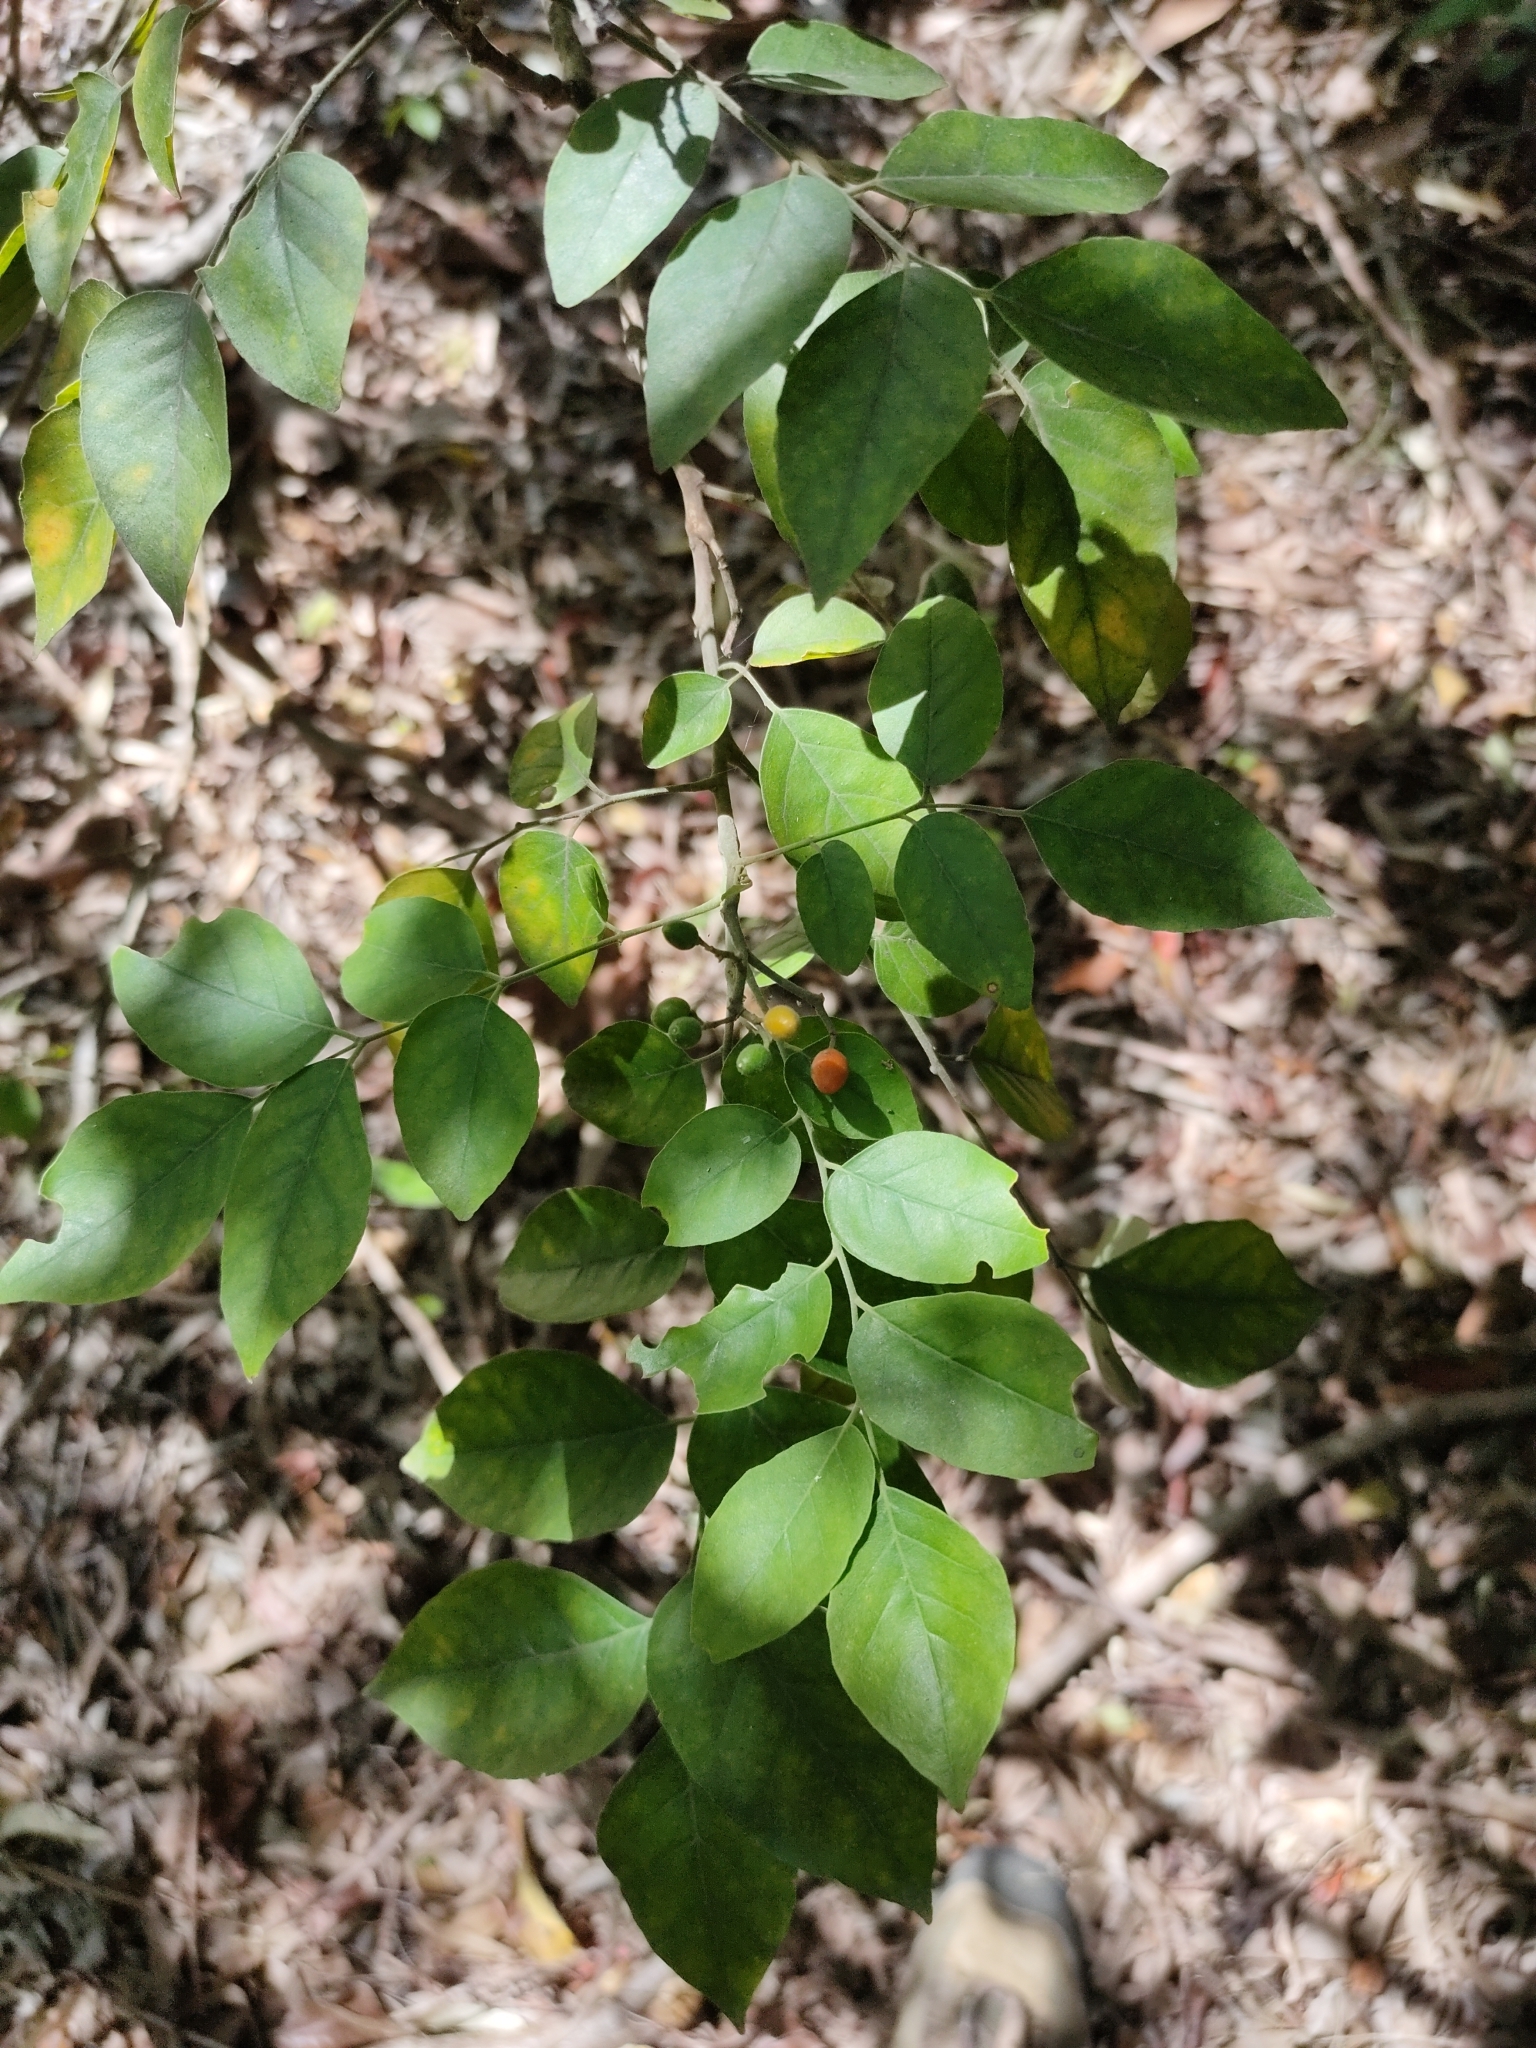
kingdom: Plantae
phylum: Tracheophyta
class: Magnoliopsida
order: Sapindales
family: Rutaceae
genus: Micromelum
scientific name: Micromelum minutum
